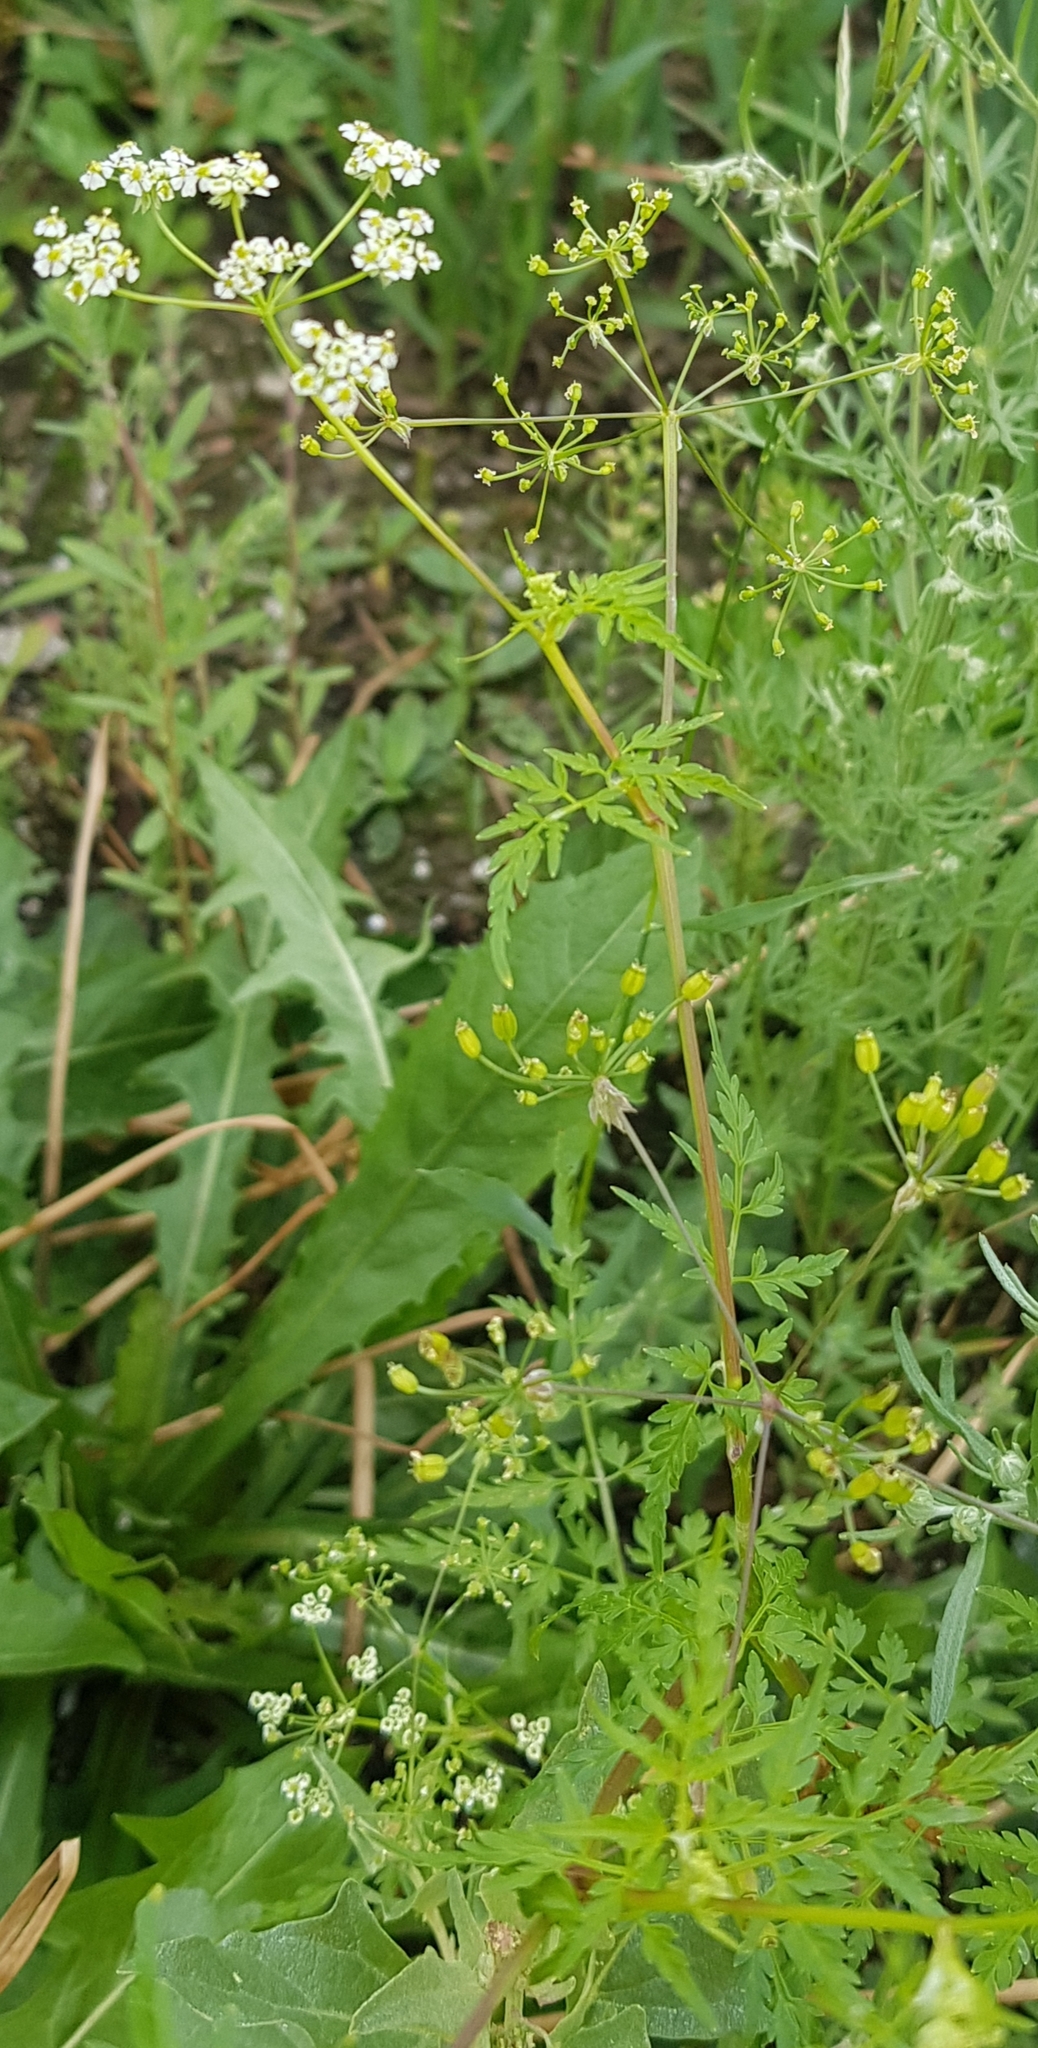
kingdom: Plantae
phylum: Tracheophyta
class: Magnoliopsida
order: Apiales
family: Apiaceae
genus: Sphallerocarpus
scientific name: Sphallerocarpus gracilis
